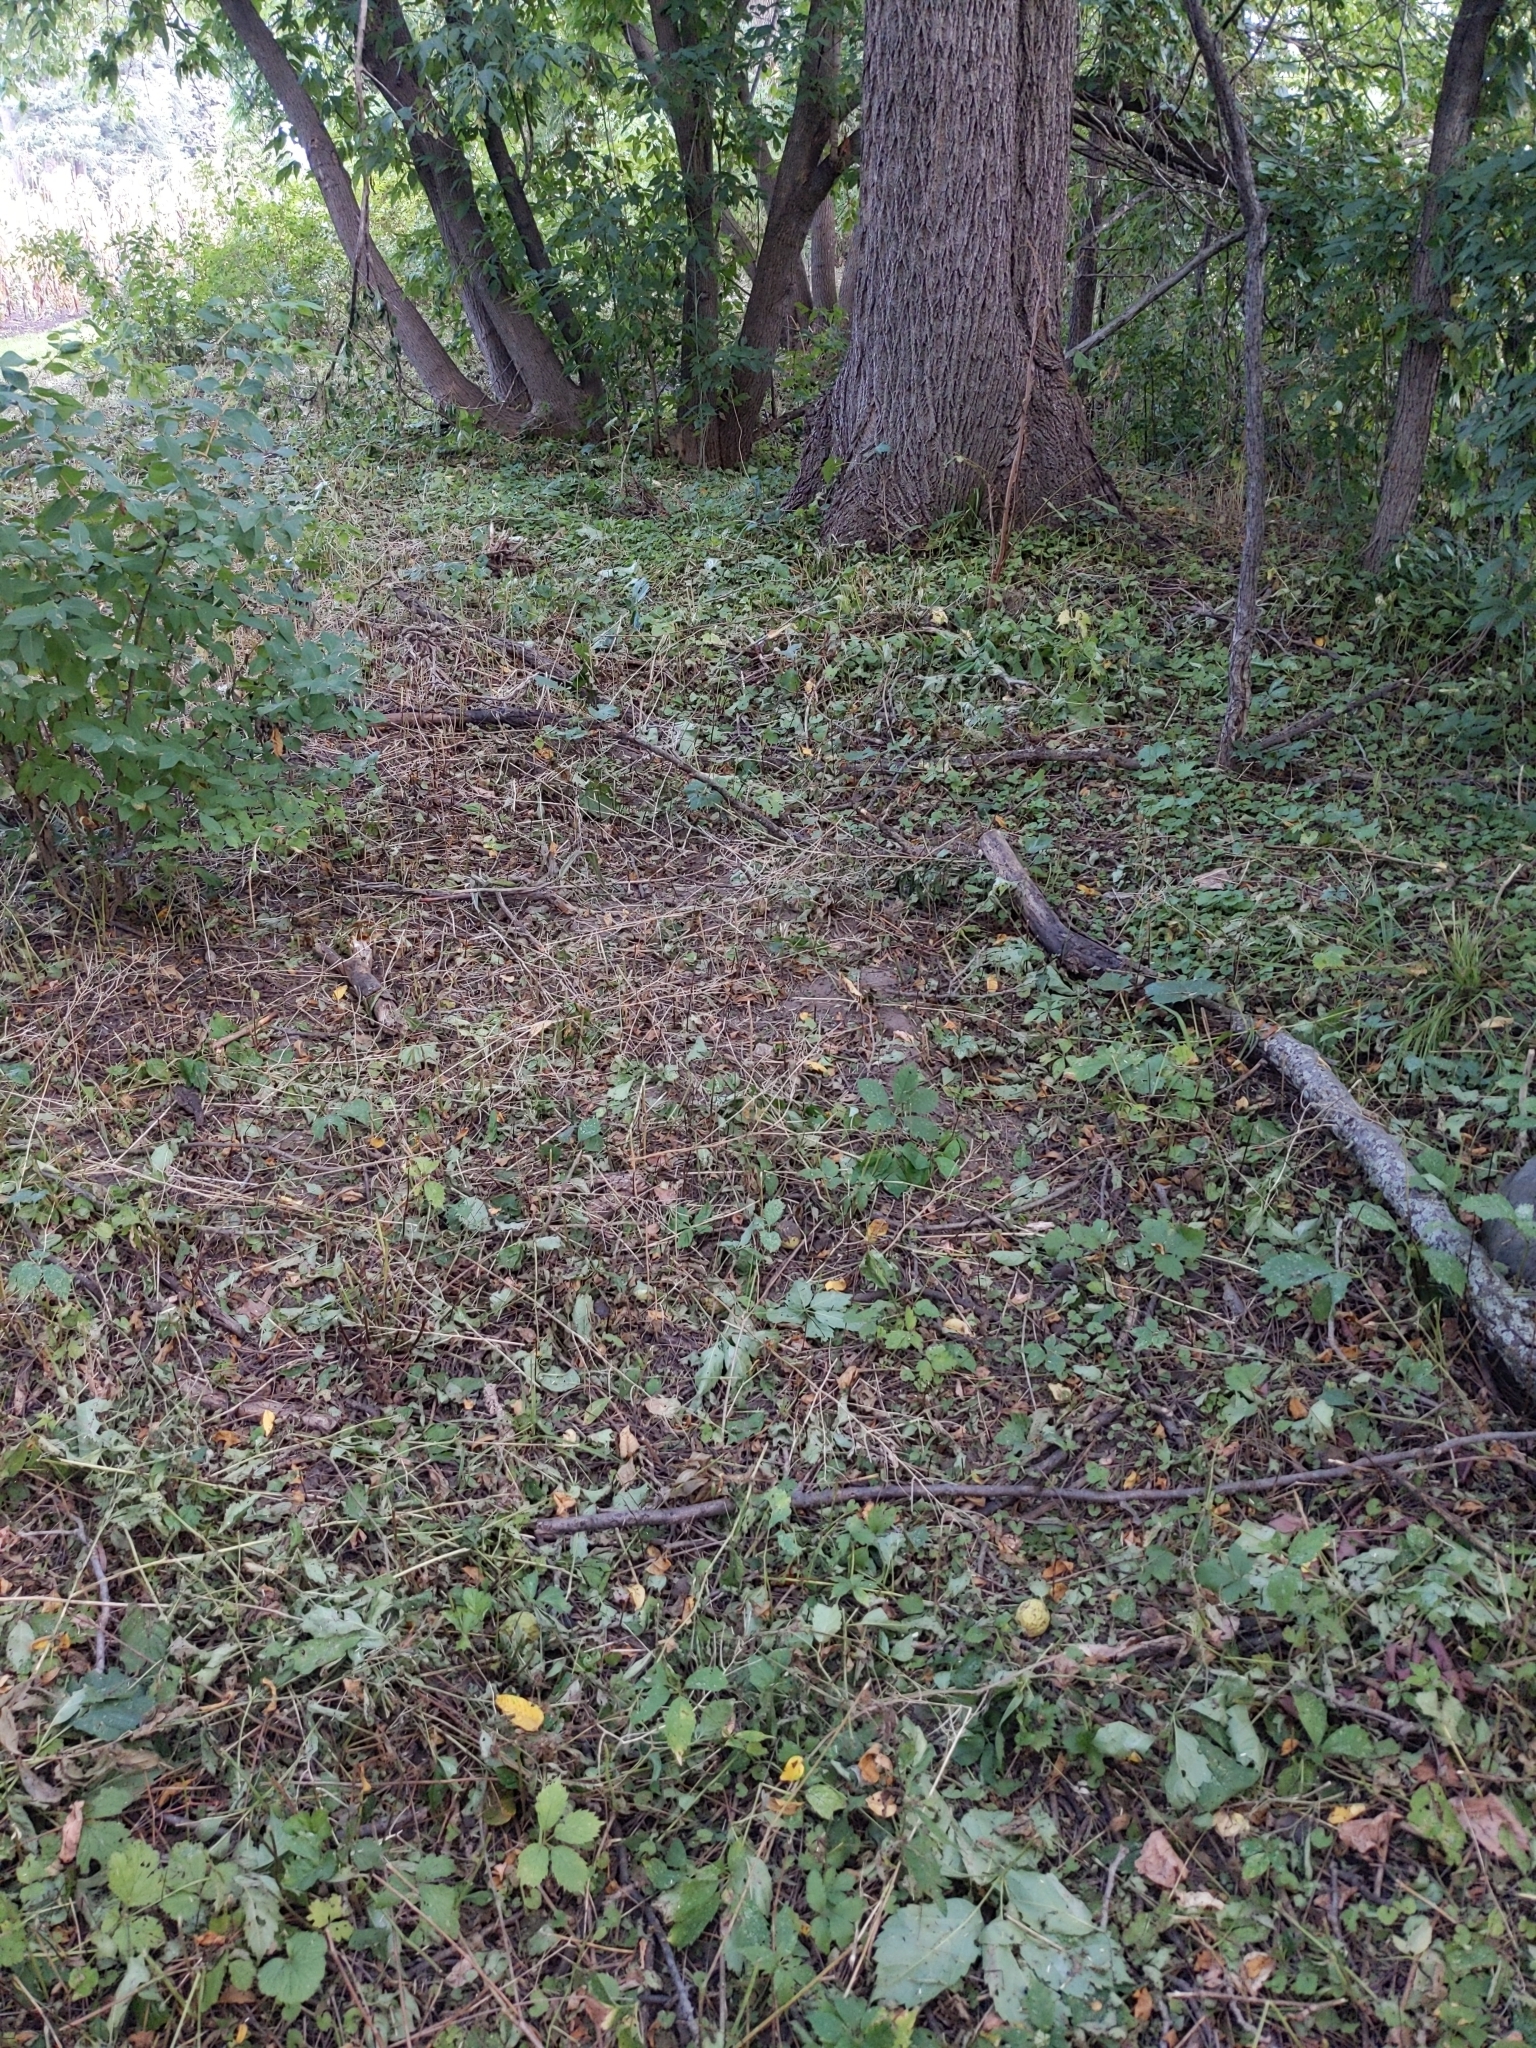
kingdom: Plantae
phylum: Tracheophyta
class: Magnoliopsida
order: Brassicales
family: Brassicaceae
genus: Alliaria
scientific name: Alliaria petiolata
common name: Garlic mustard
